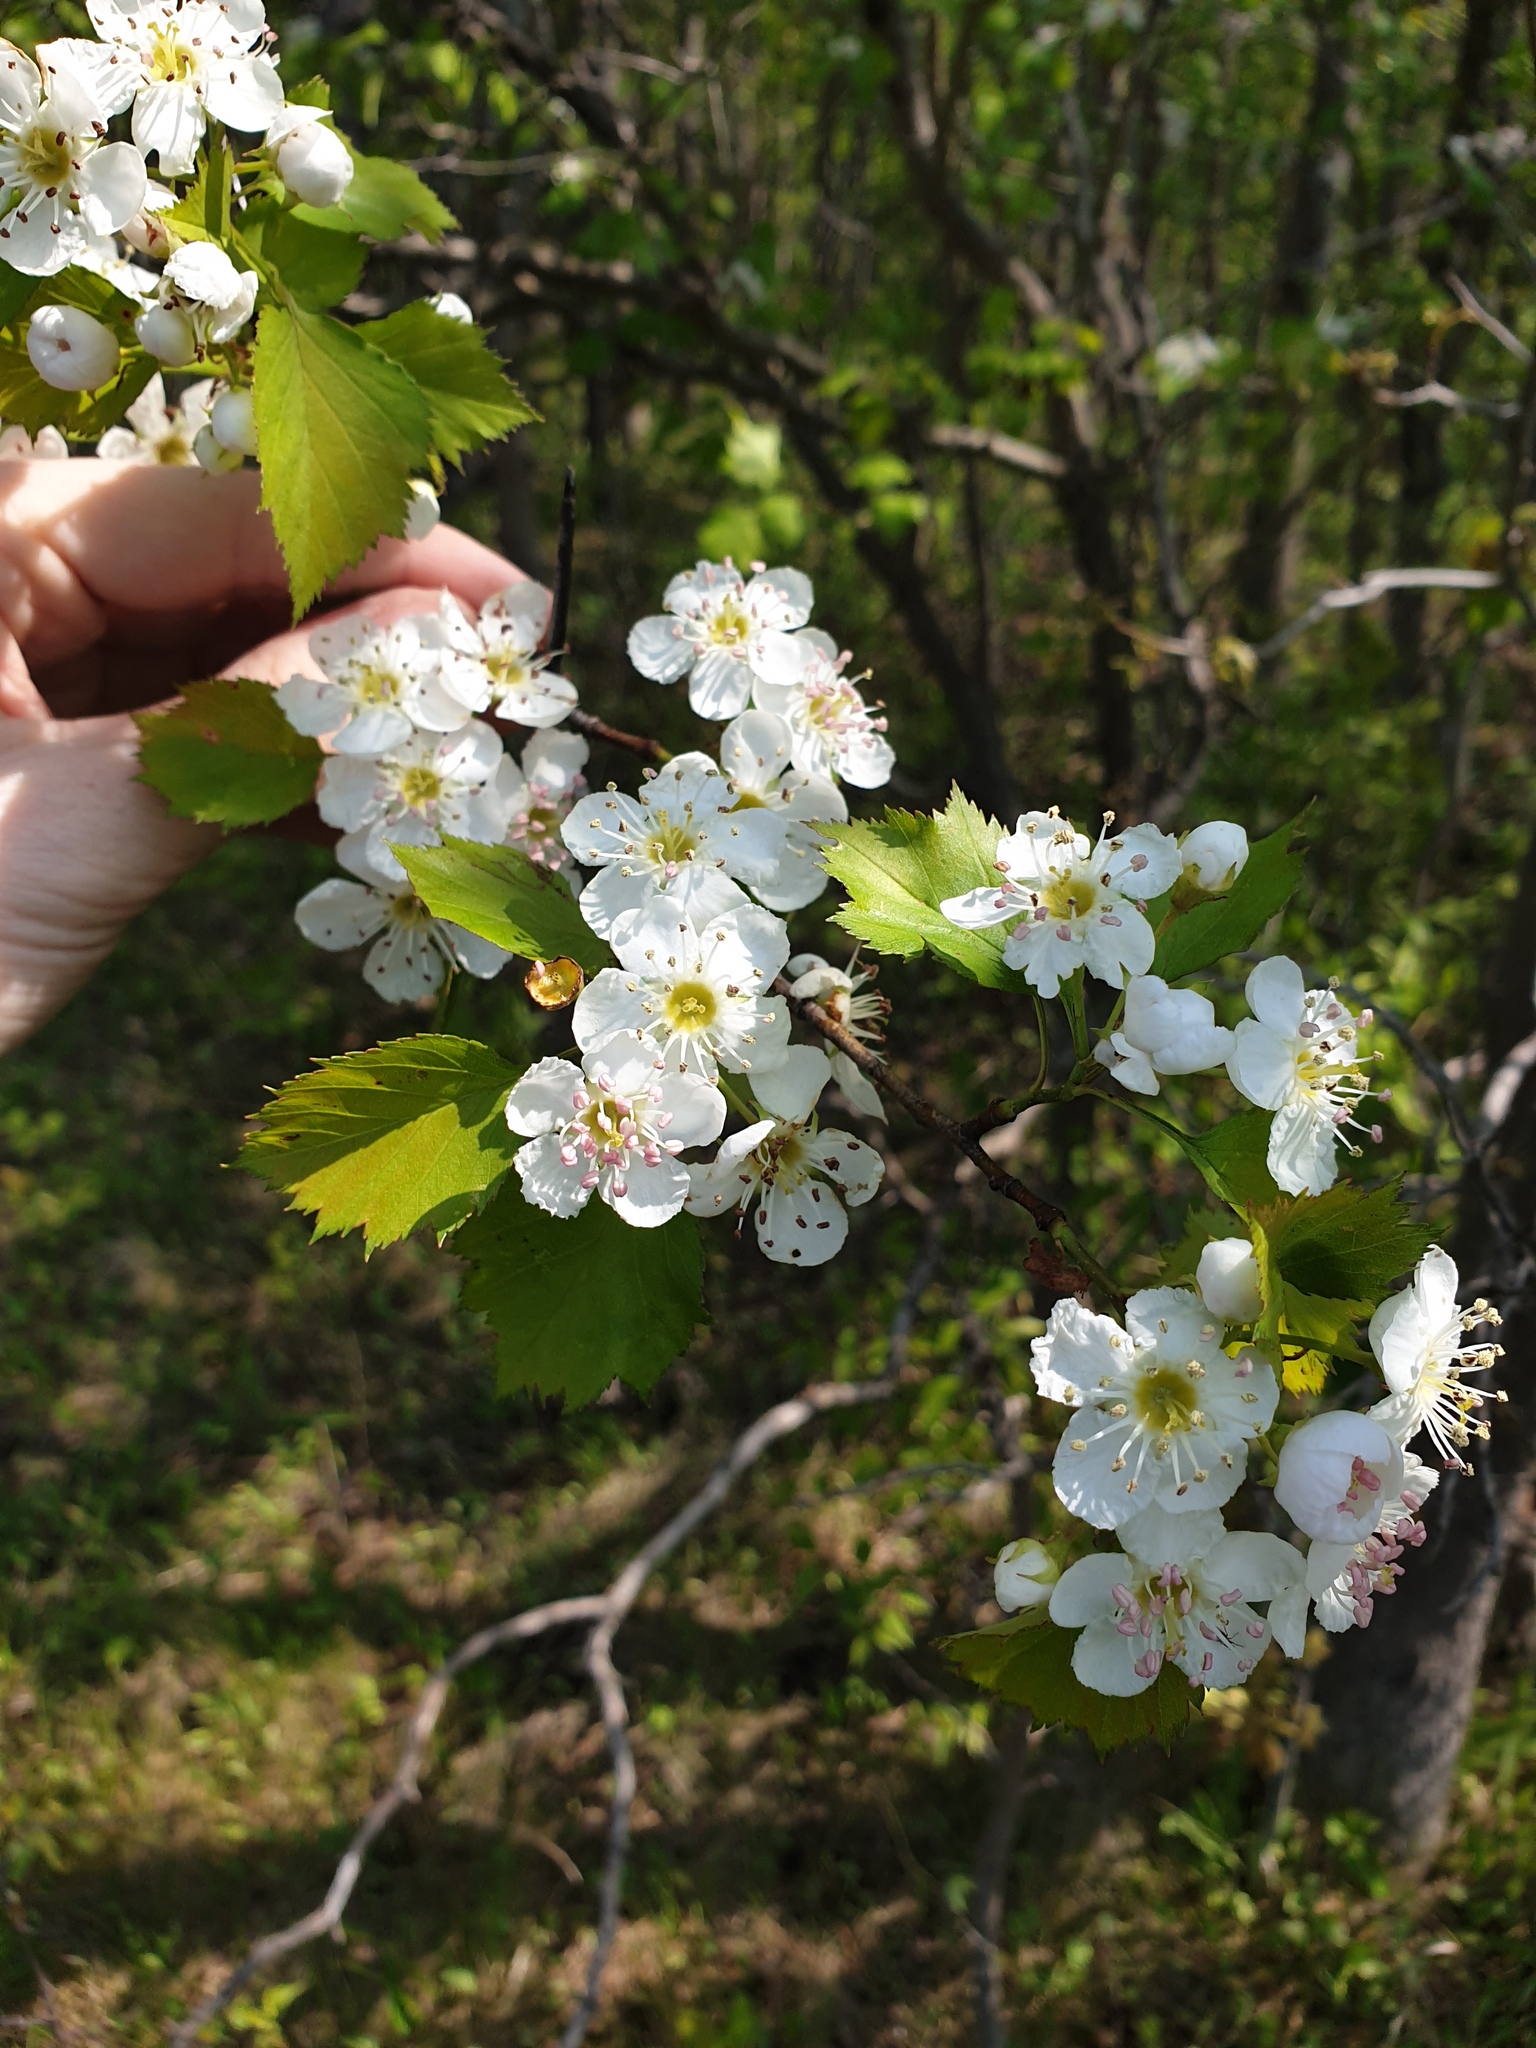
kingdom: Plantae
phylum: Tracheophyta
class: Magnoliopsida
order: Rosales
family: Rosaceae
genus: Crataegus
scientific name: Crataegus pruinosa
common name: Waxy-fruit hawthorn
